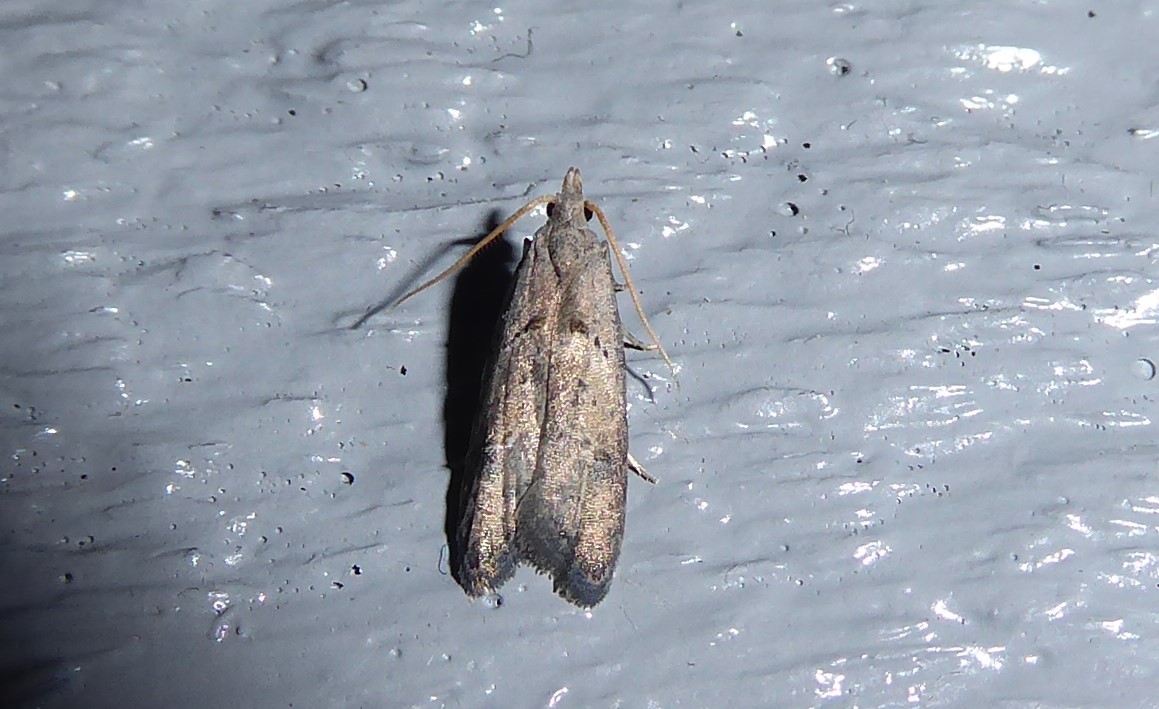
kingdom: Animalia
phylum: Arthropoda
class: Insecta
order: Lepidoptera
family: Carposinidae
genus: Carposina
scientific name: Carposina rubophaga
